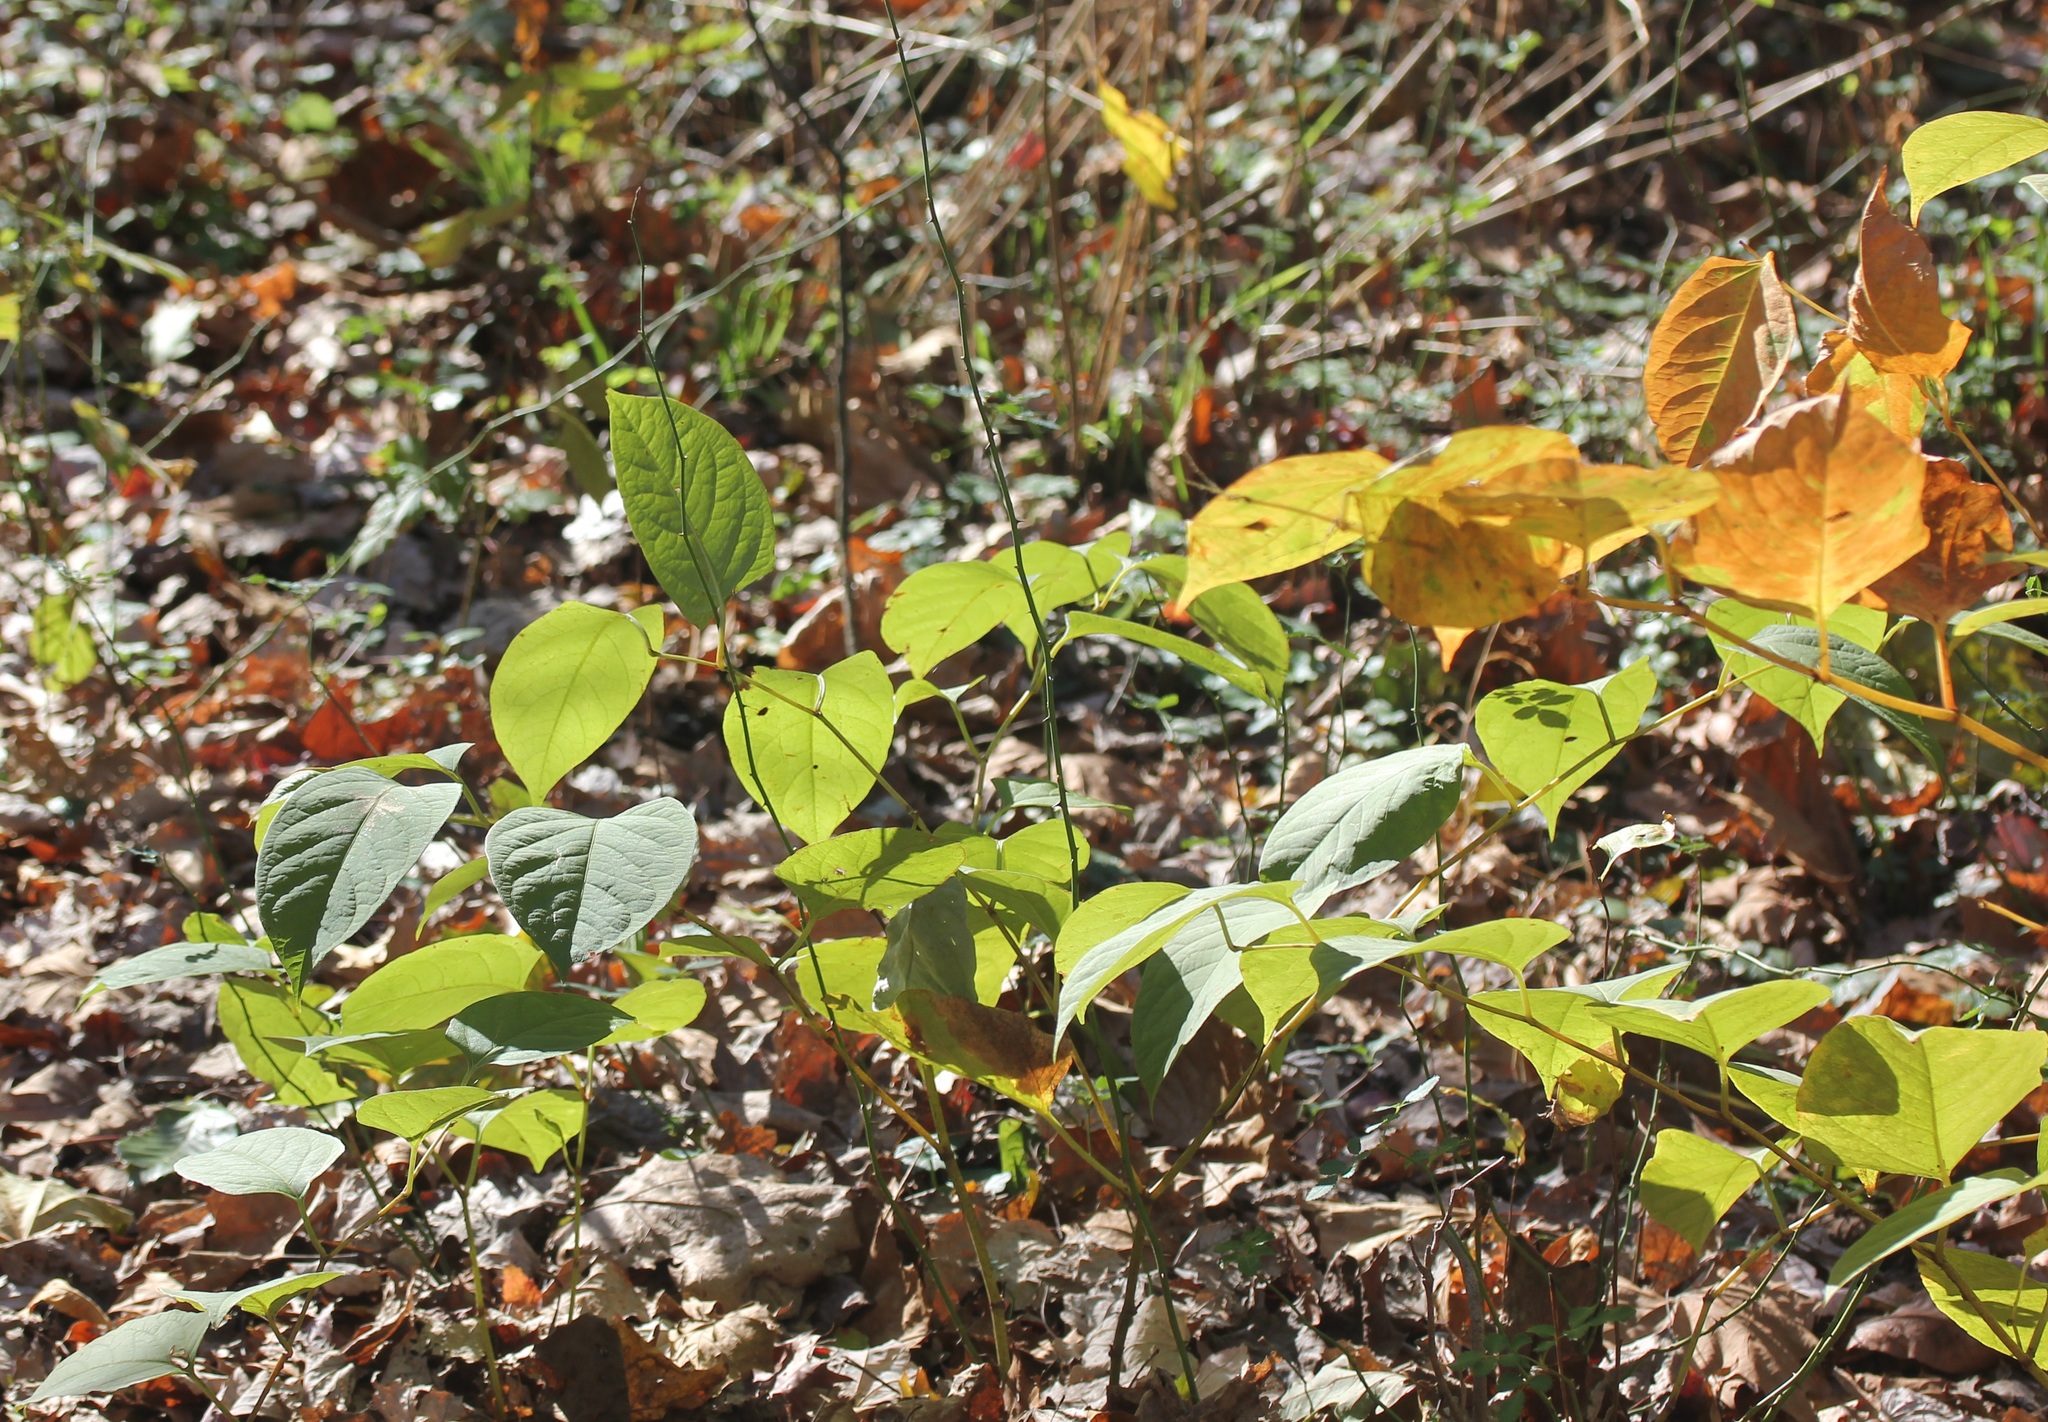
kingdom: Plantae
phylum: Tracheophyta
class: Magnoliopsida
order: Caryophyllales
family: Polygonaceae
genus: Reynoutria
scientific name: Reynoutria japonica
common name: Japanese knotweed
